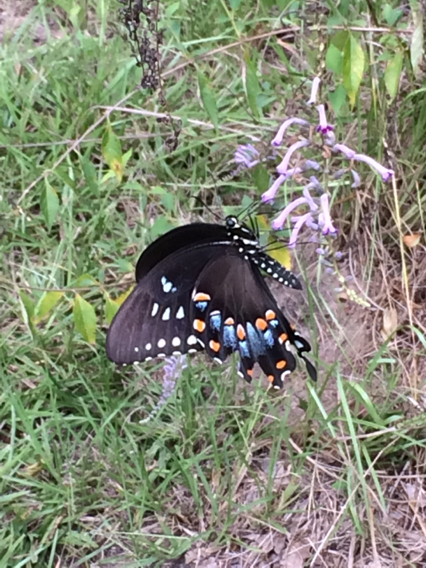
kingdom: Animalia
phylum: Arthropoda
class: Insecta
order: Lepidoptera
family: Papilionidae
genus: Papilio
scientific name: Papilio troilus
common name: Spicebush swallowtail
